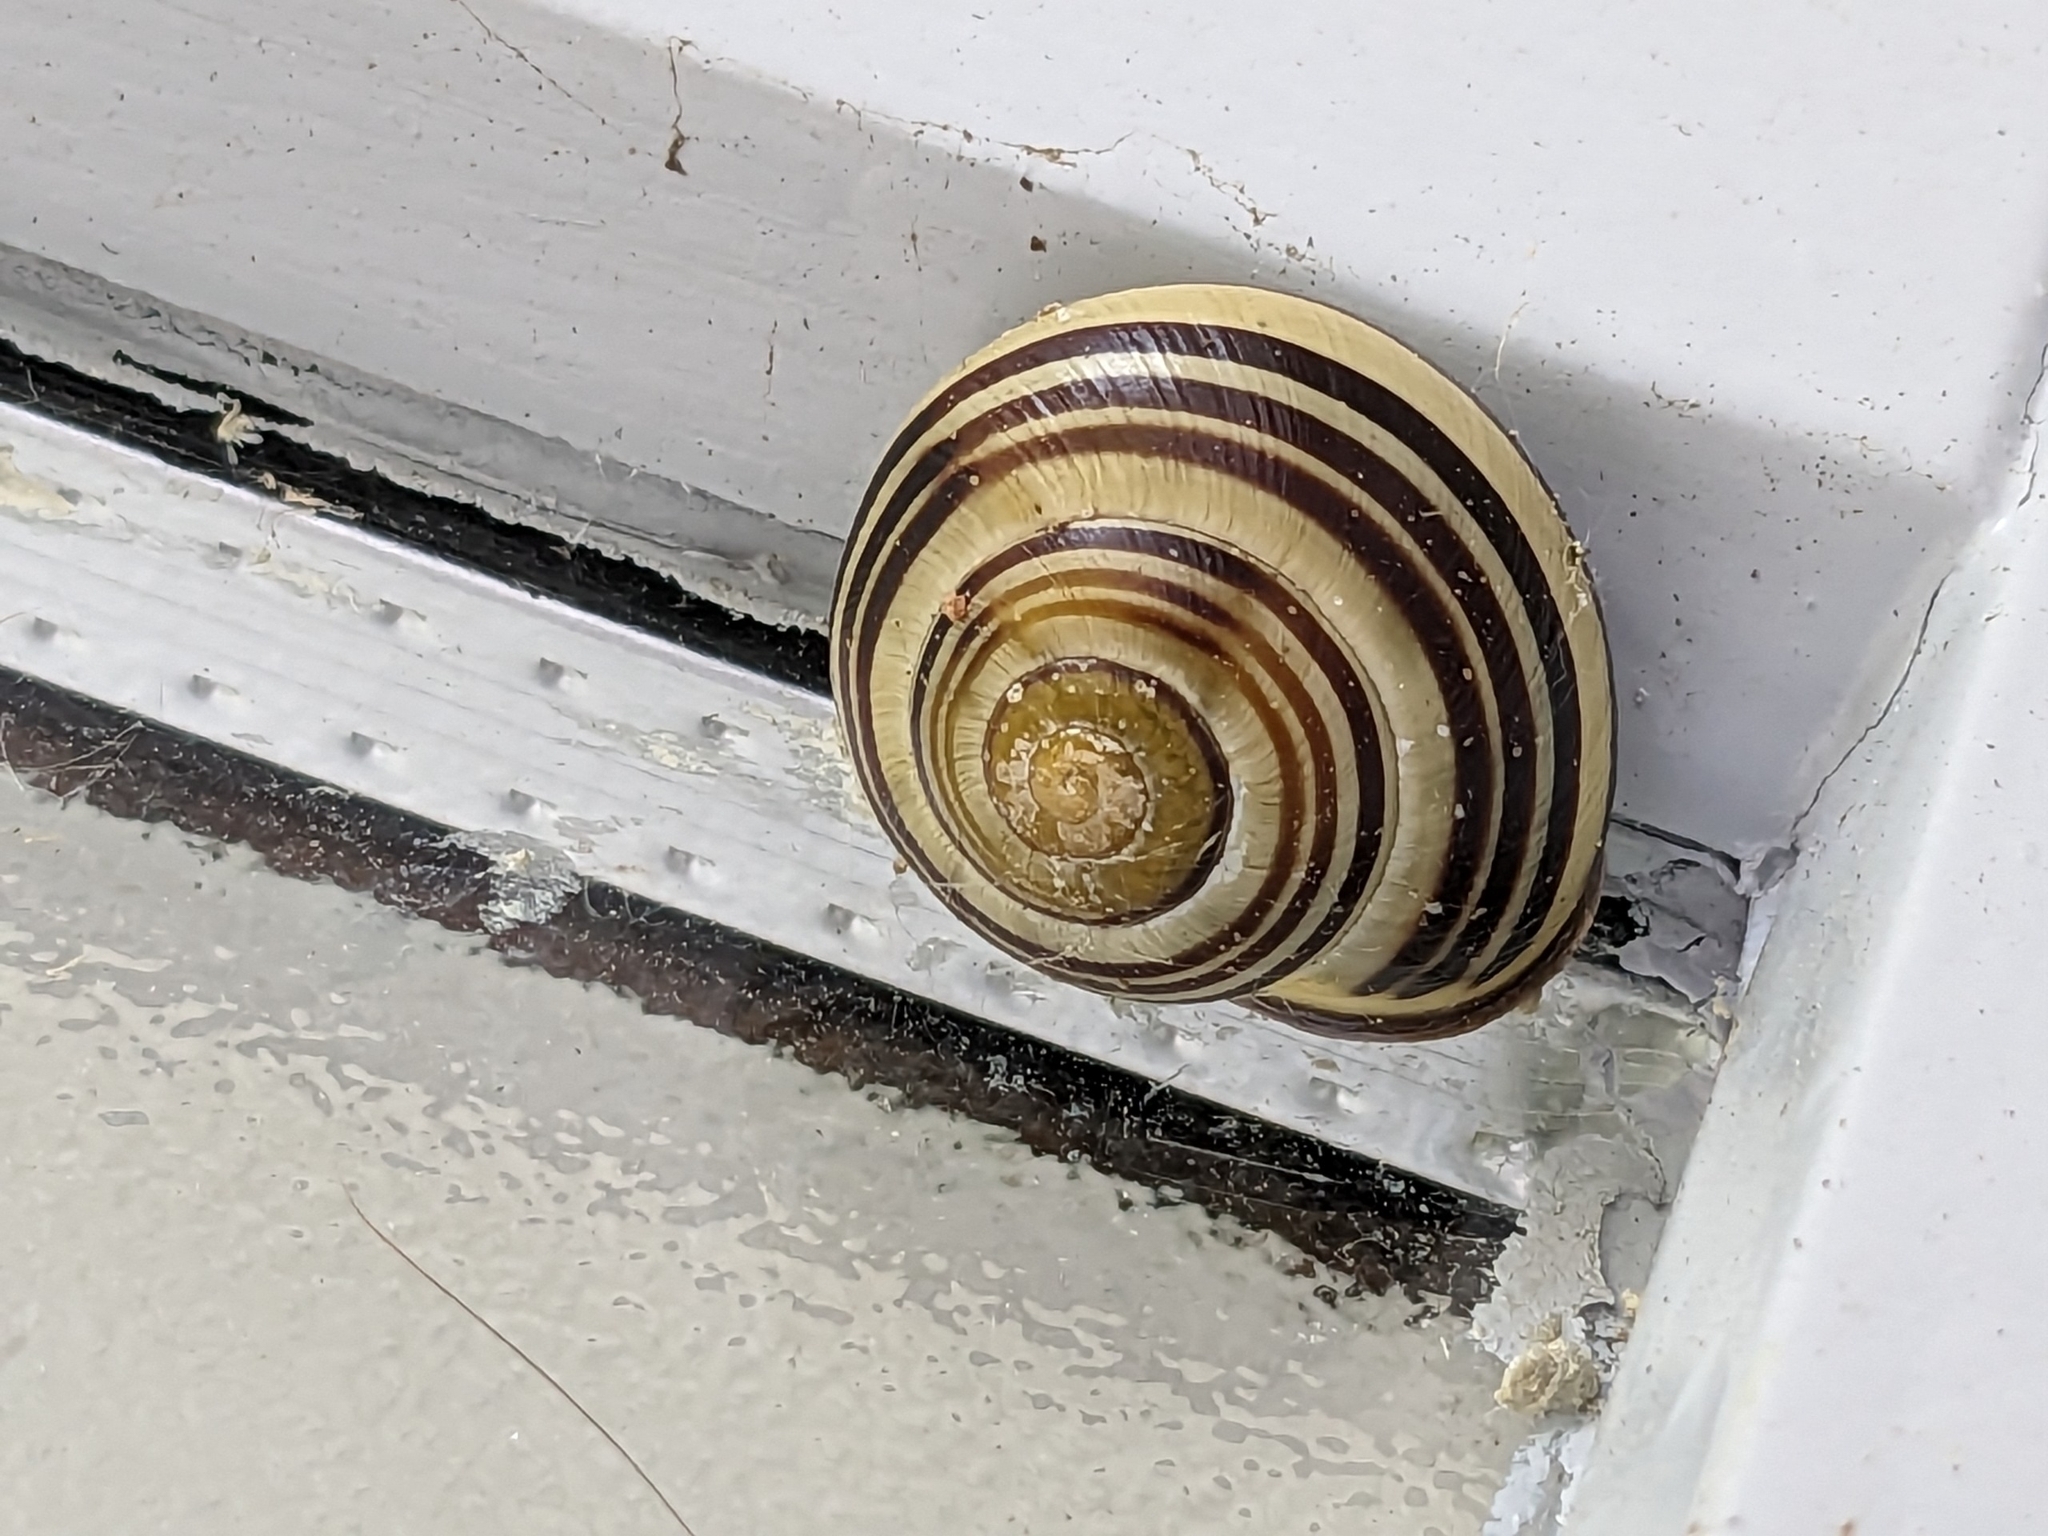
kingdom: Animalia
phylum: Mollusca
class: Gastropoda
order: Stylommatophora
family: Helicidae
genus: Cepaea
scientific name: Cepaea nemoralis
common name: Grovesnail
